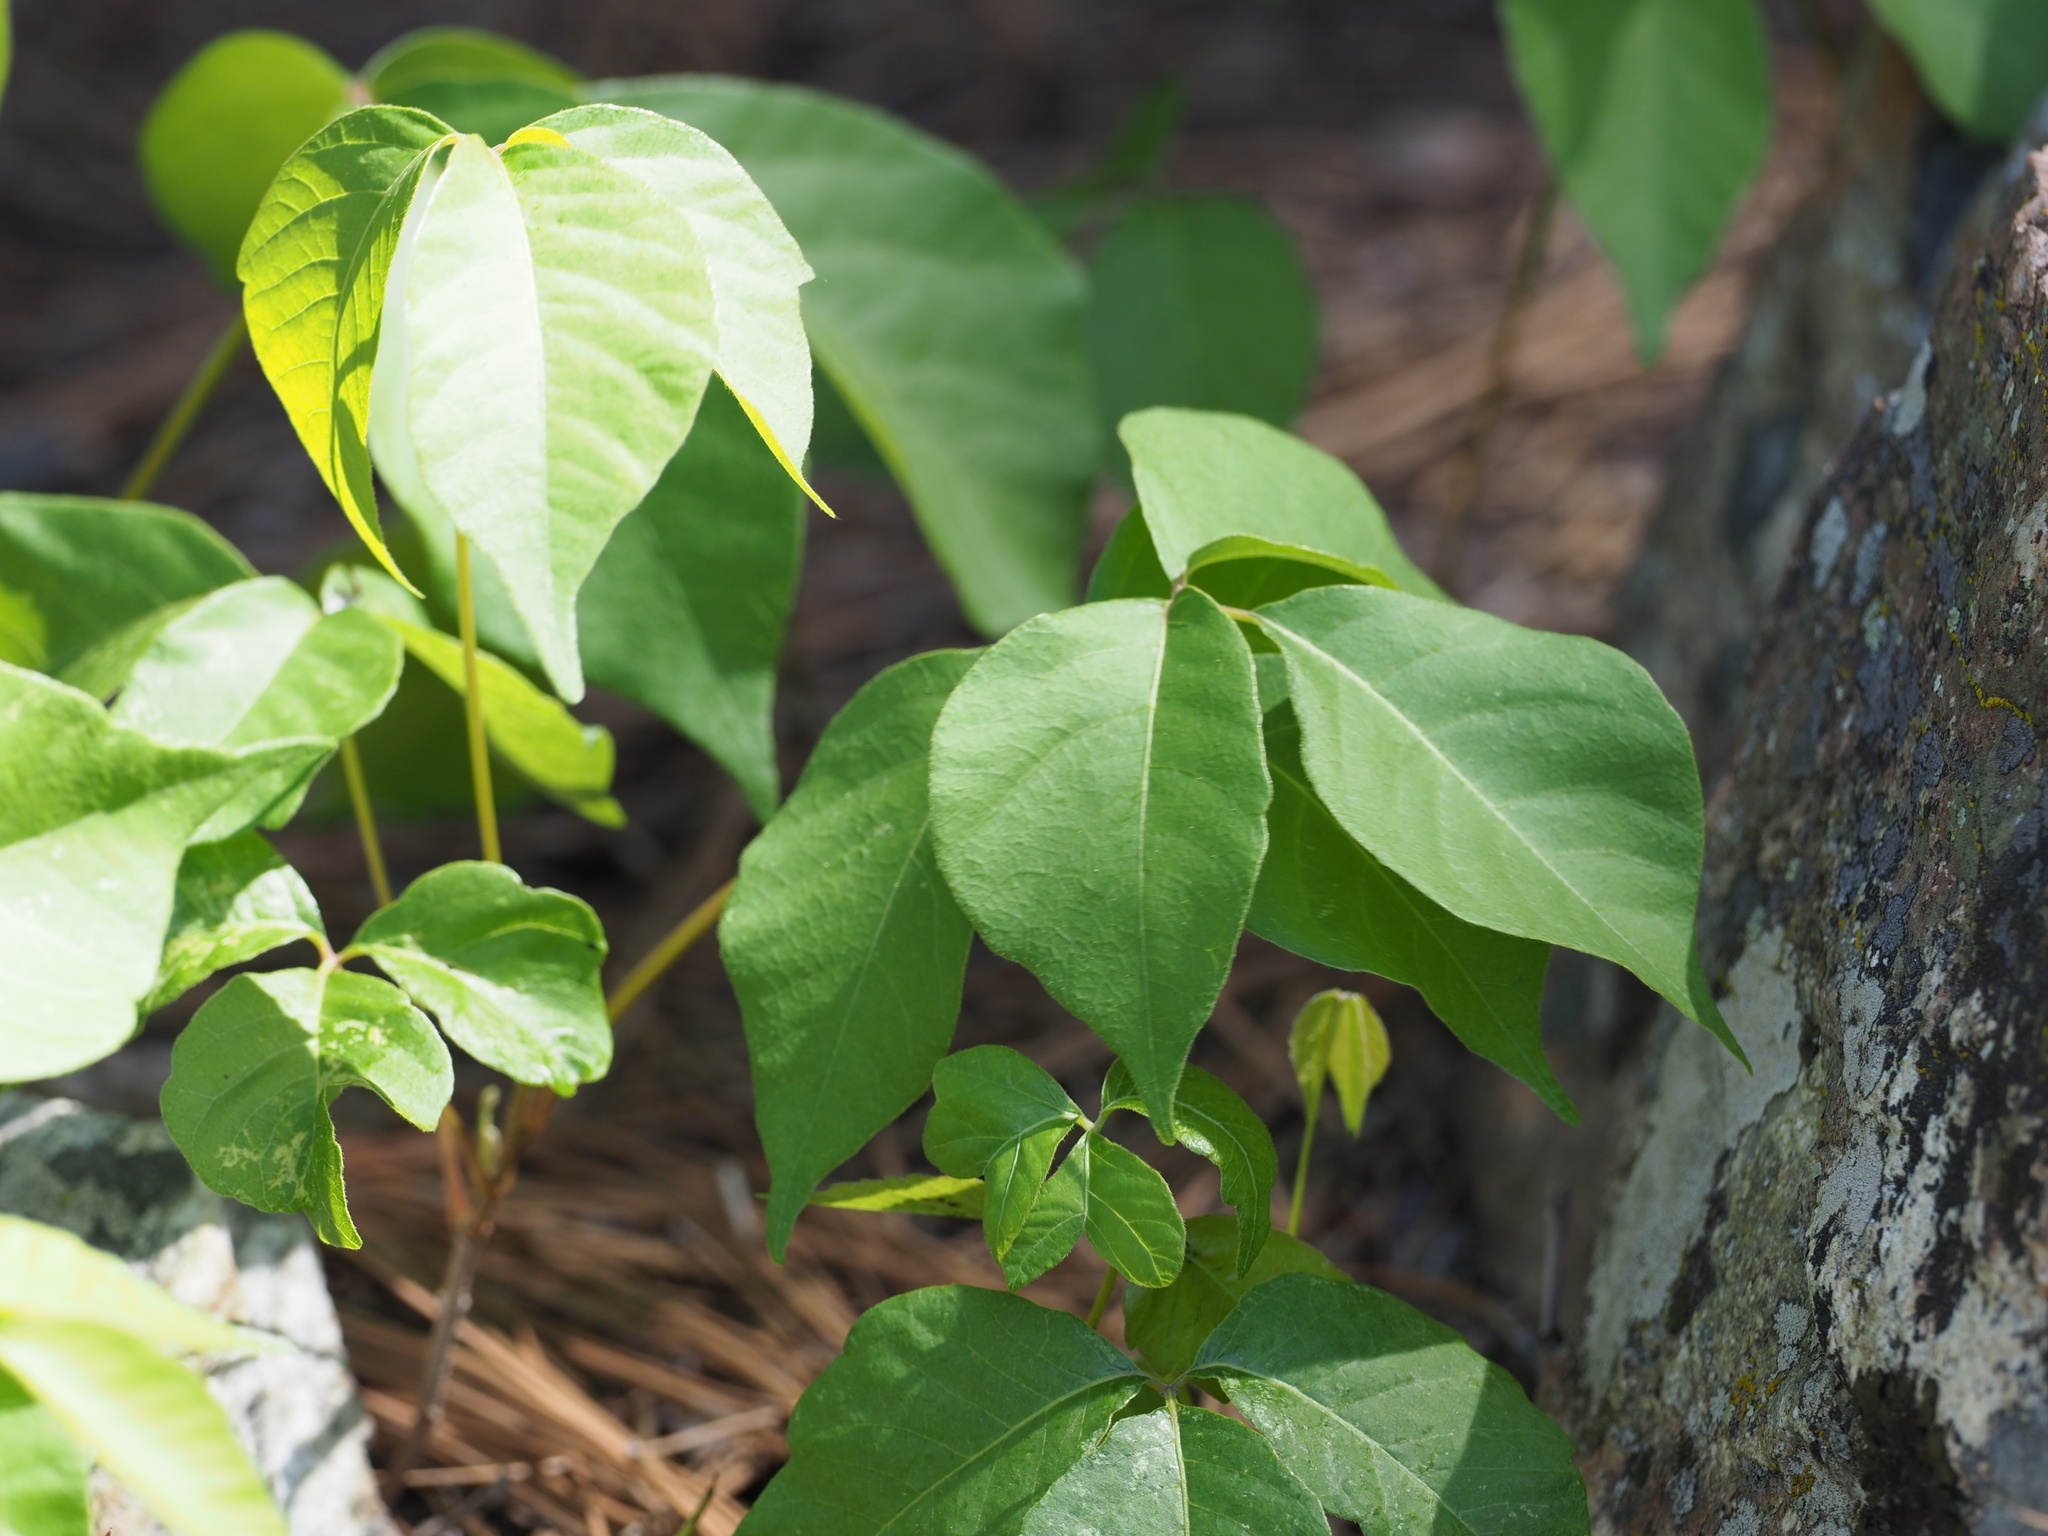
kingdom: Plantae
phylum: Tracheophyta
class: Magnoliopsida
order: Sapindales
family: Anacardiaceae
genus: Toxicodendron
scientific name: Toxicodendron rydbergii
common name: Rydberg's poison-ivy
